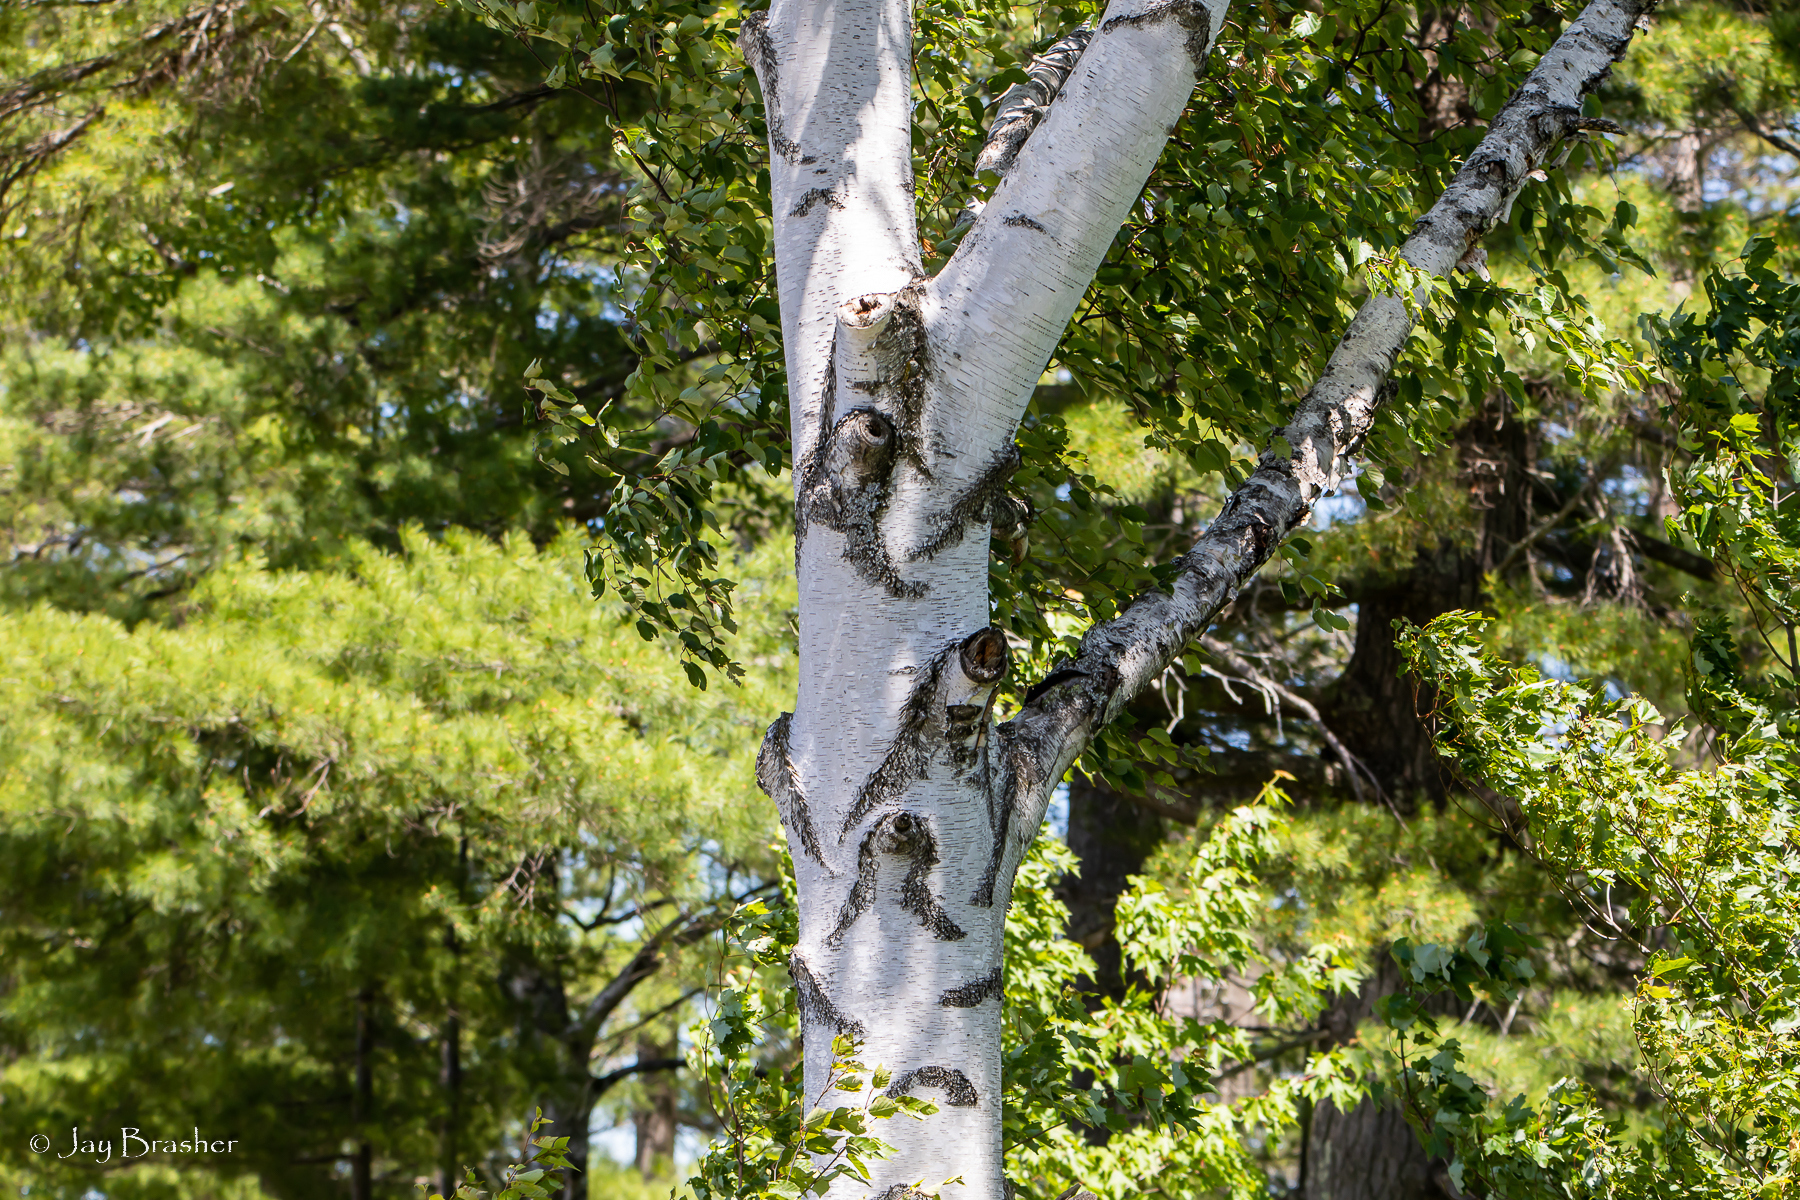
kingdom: Plantae
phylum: Tracheophyta
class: Magnoliopsida
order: Fagales
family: Betulaceae
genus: Betula
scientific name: Betula papyrifera
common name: Paper birch
